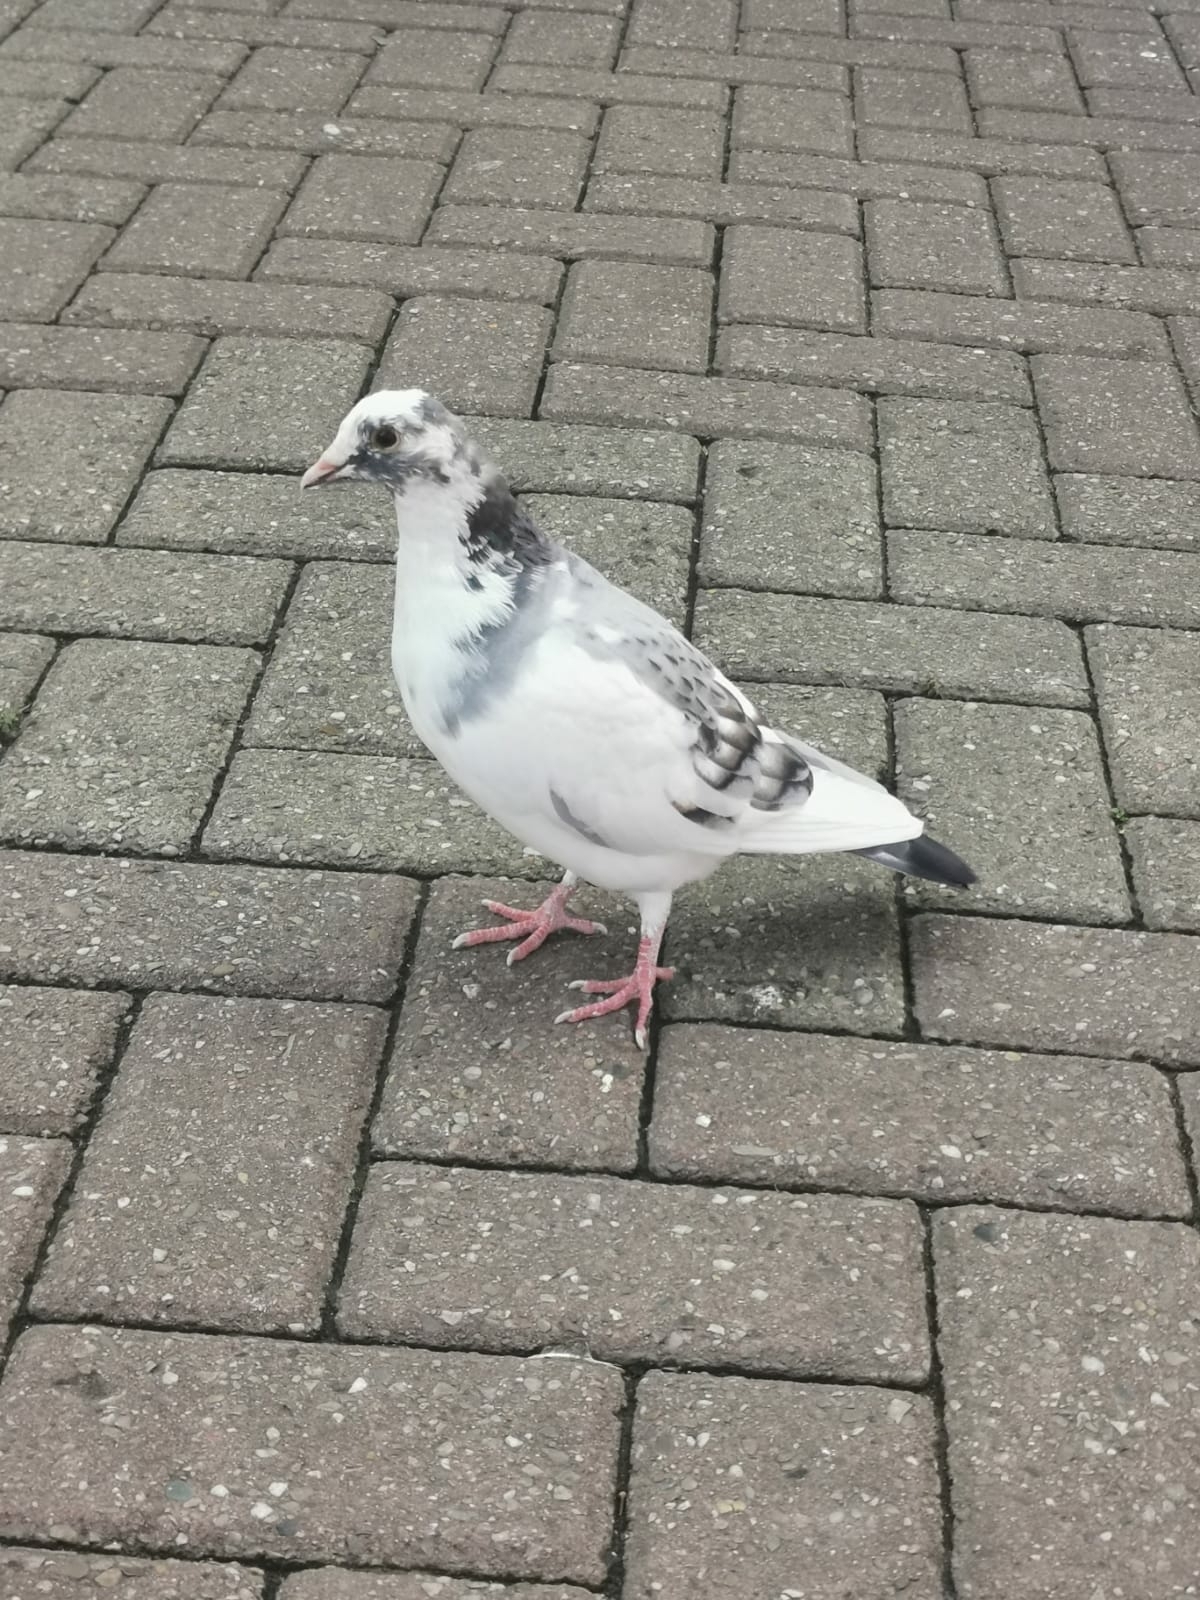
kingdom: Animalia
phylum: Chordata
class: Aves
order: Columbiformes
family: Columbidae
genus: Columba
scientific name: Columba livia
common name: Rock pigeon
